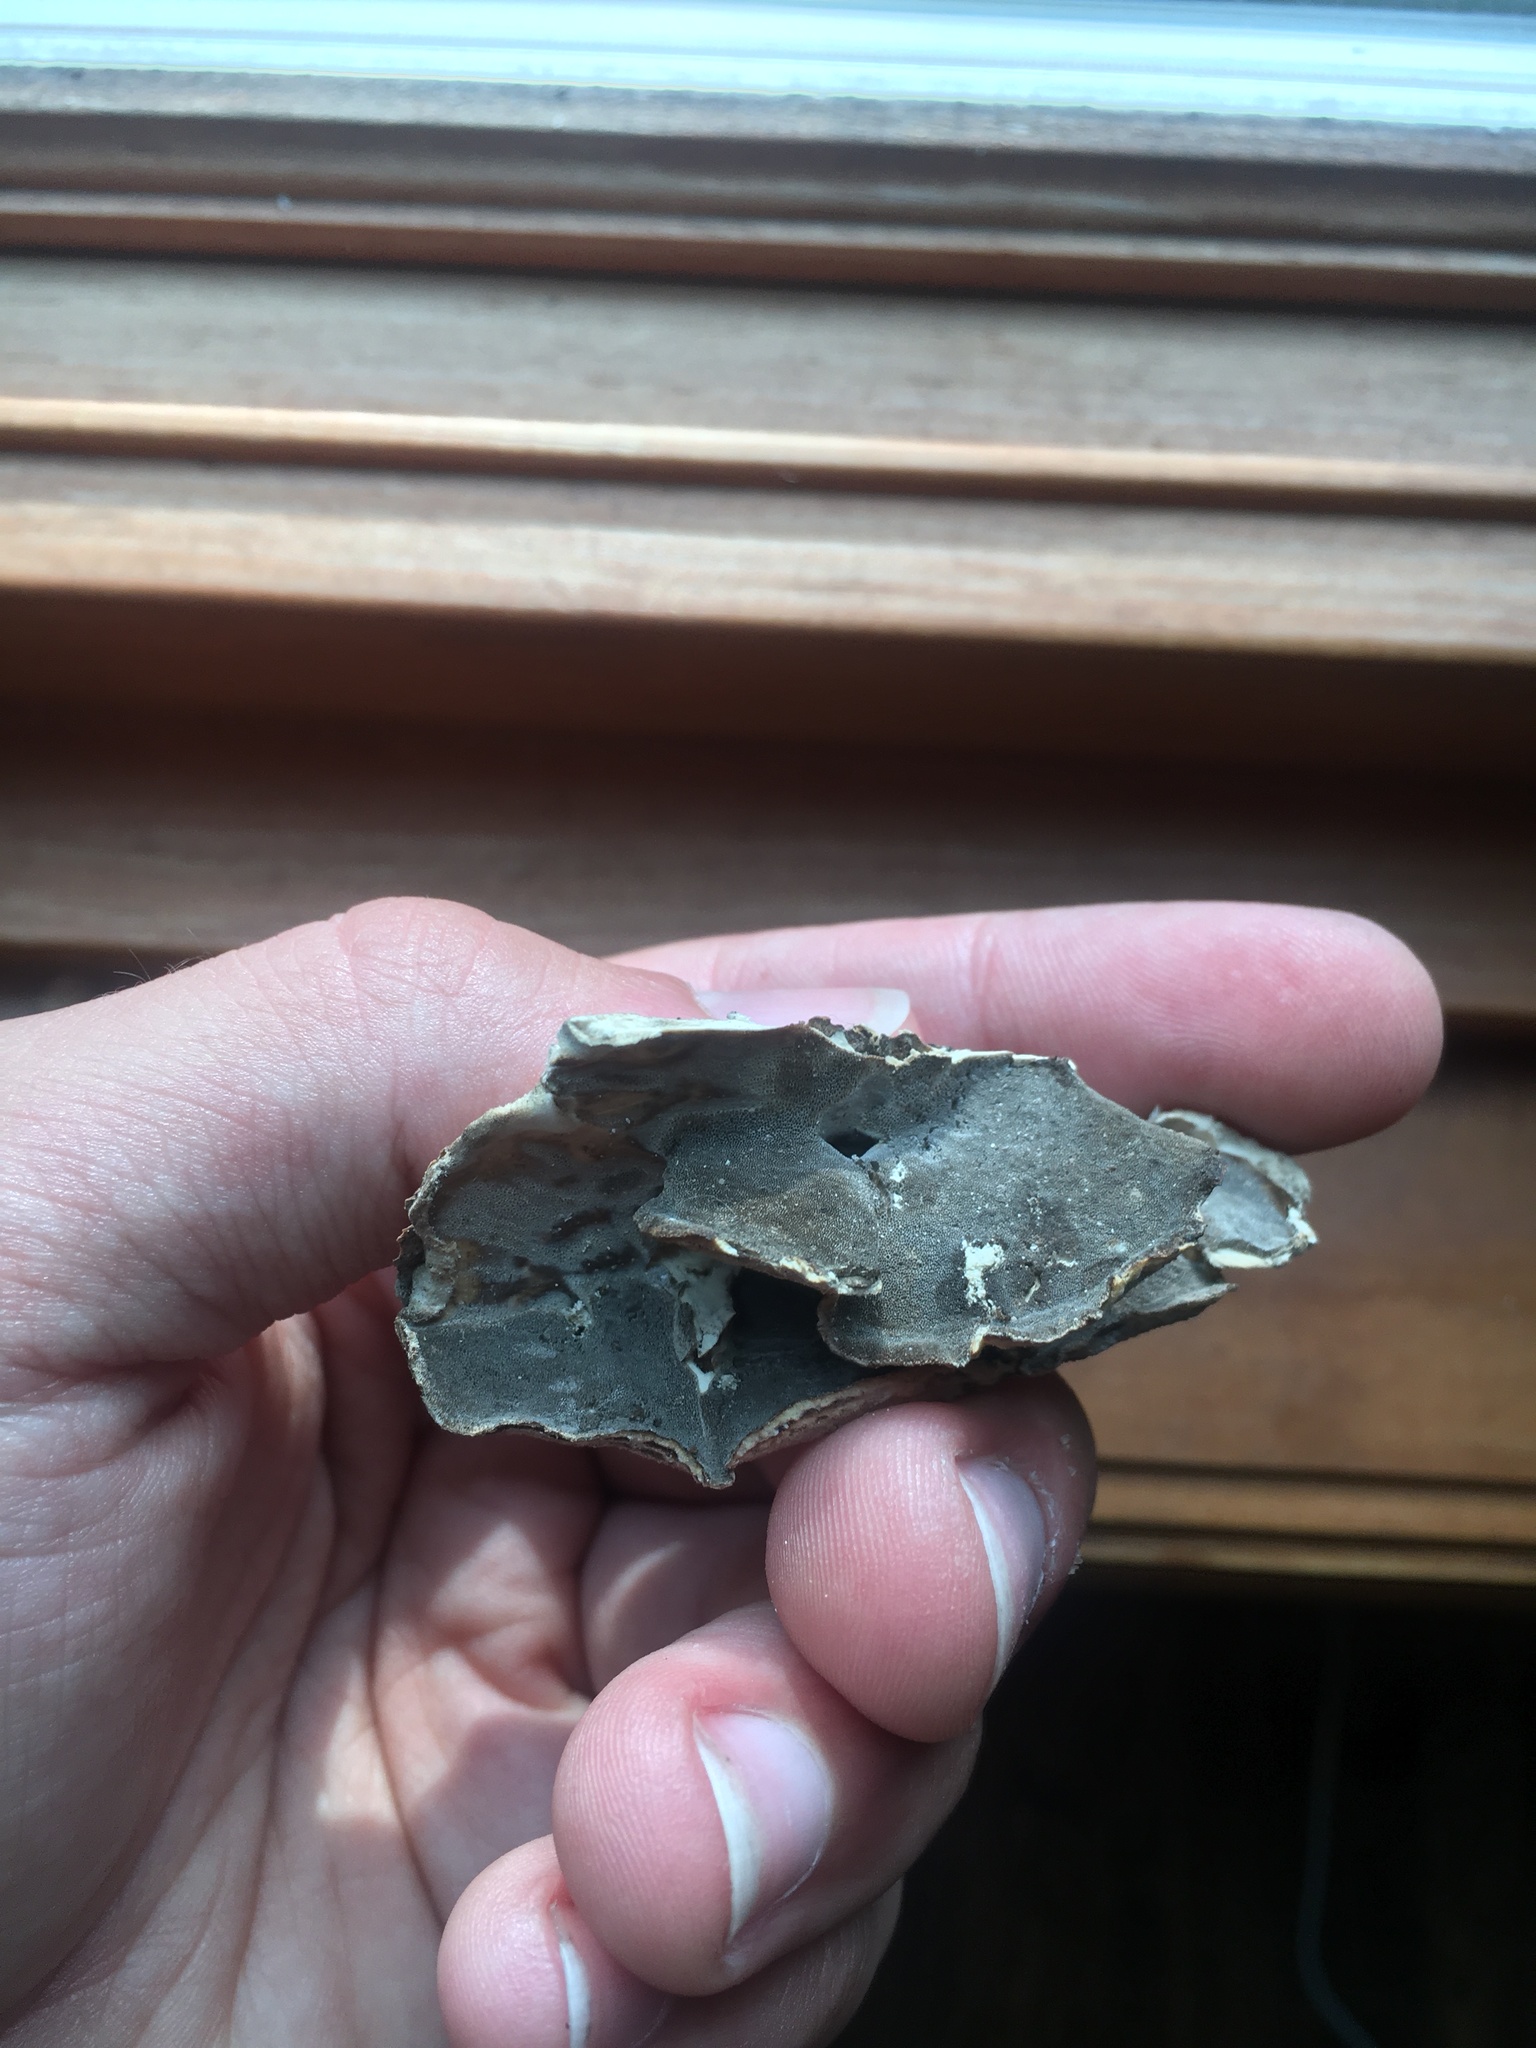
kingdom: Fungi
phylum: Basidiomycota
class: Agaricomycetes
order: Polyporales
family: Phanerochaetaceae
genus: Bjerkandera
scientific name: Bjerkandera adusta
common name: Smoky bracket
